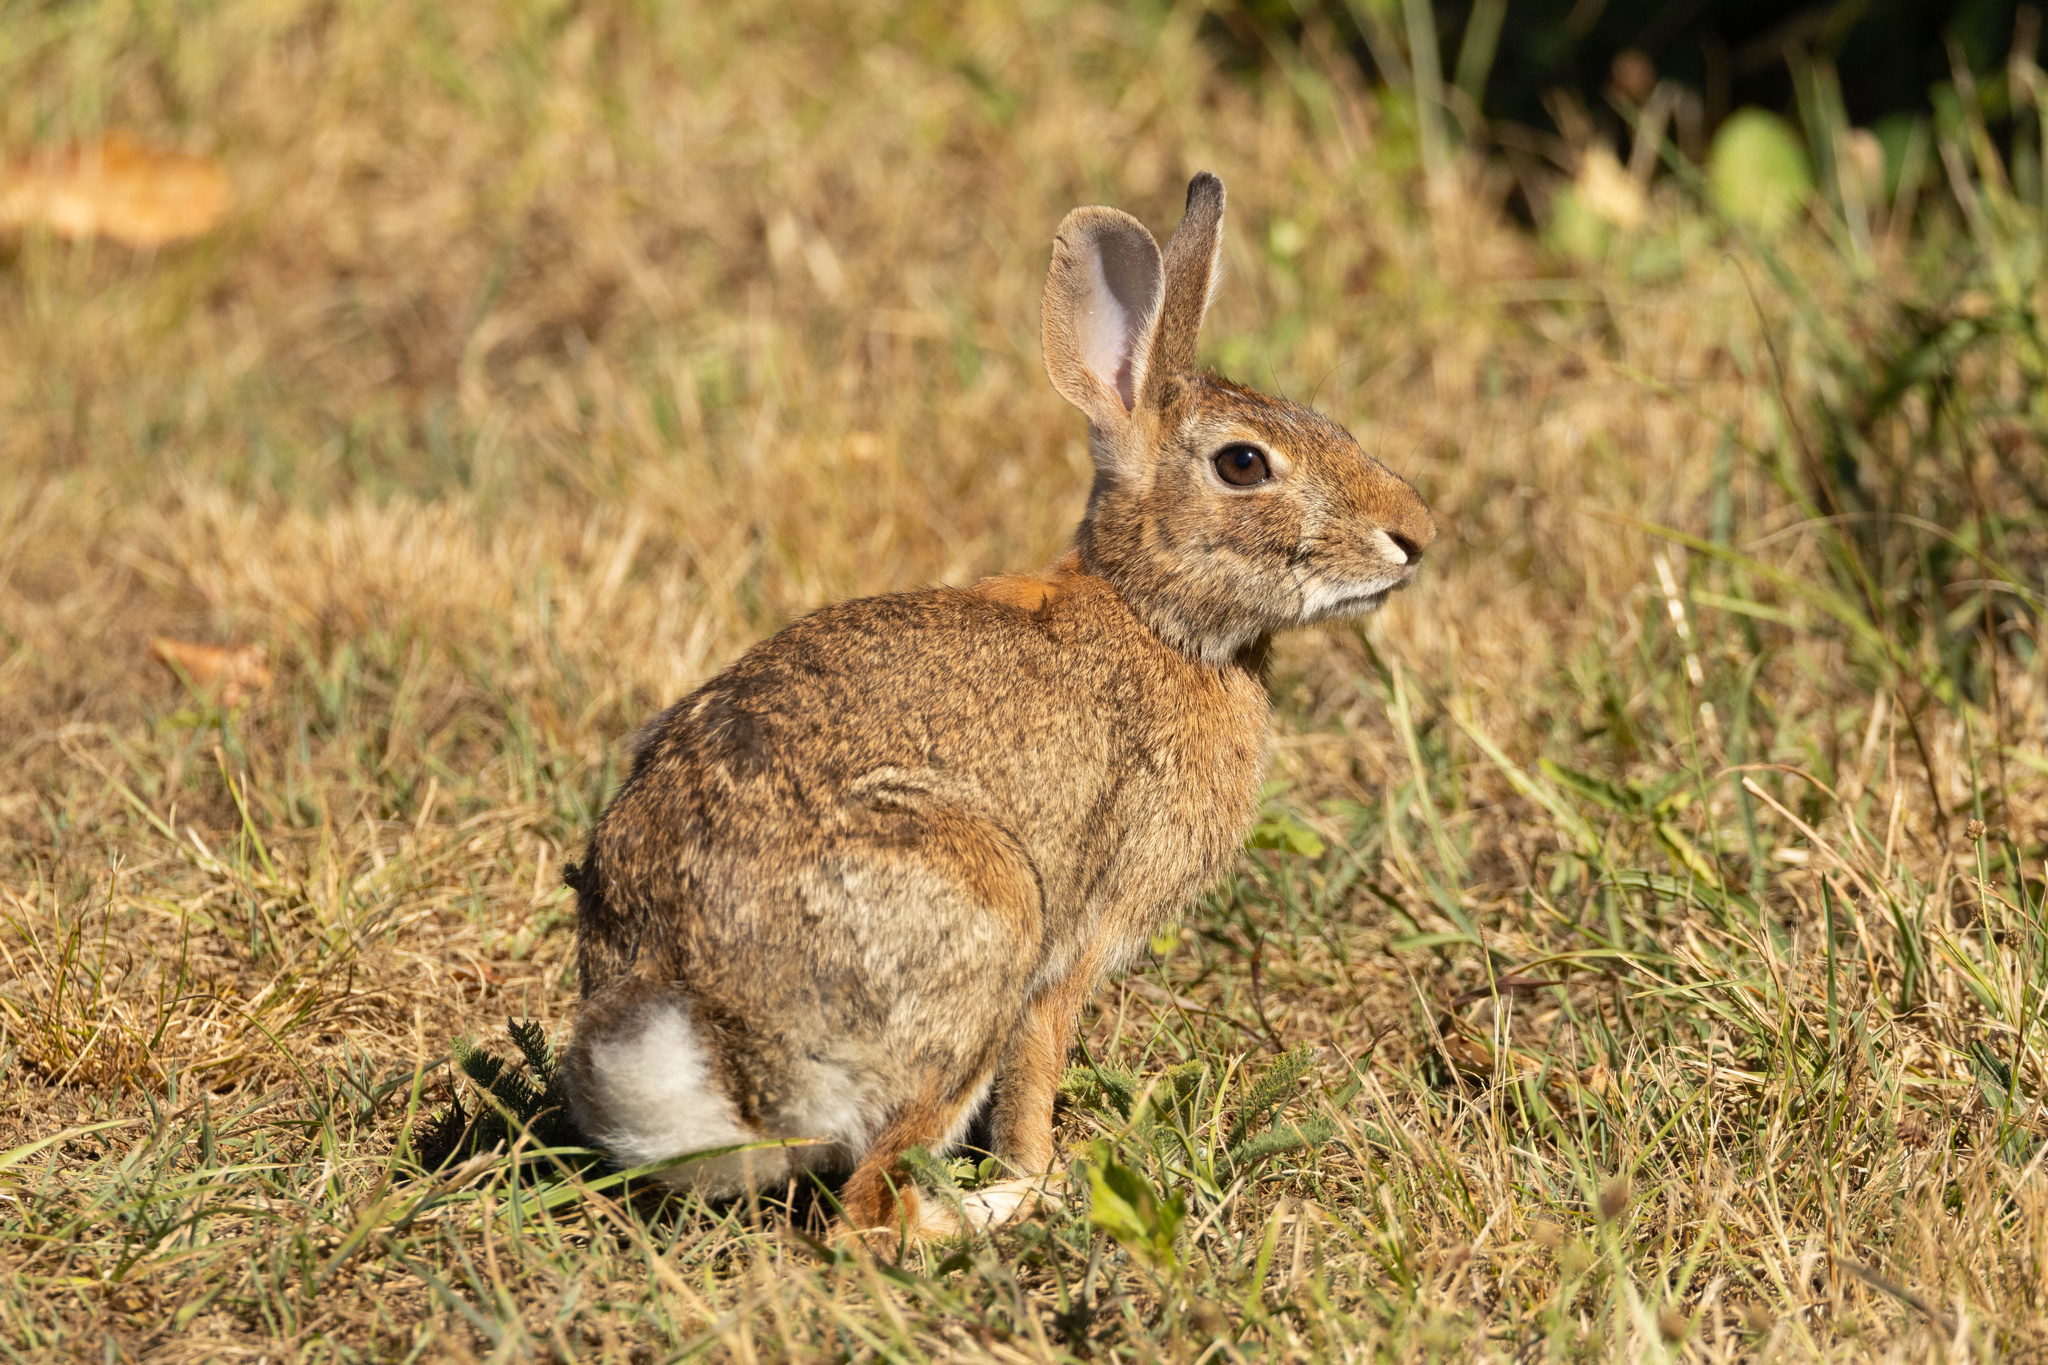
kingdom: Animalia
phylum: Chordata
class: Mammalia
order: Lagomorpha
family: Leporidae
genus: Sylvilagus
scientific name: Sylvilagus floridanus
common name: Eastern cottontail
